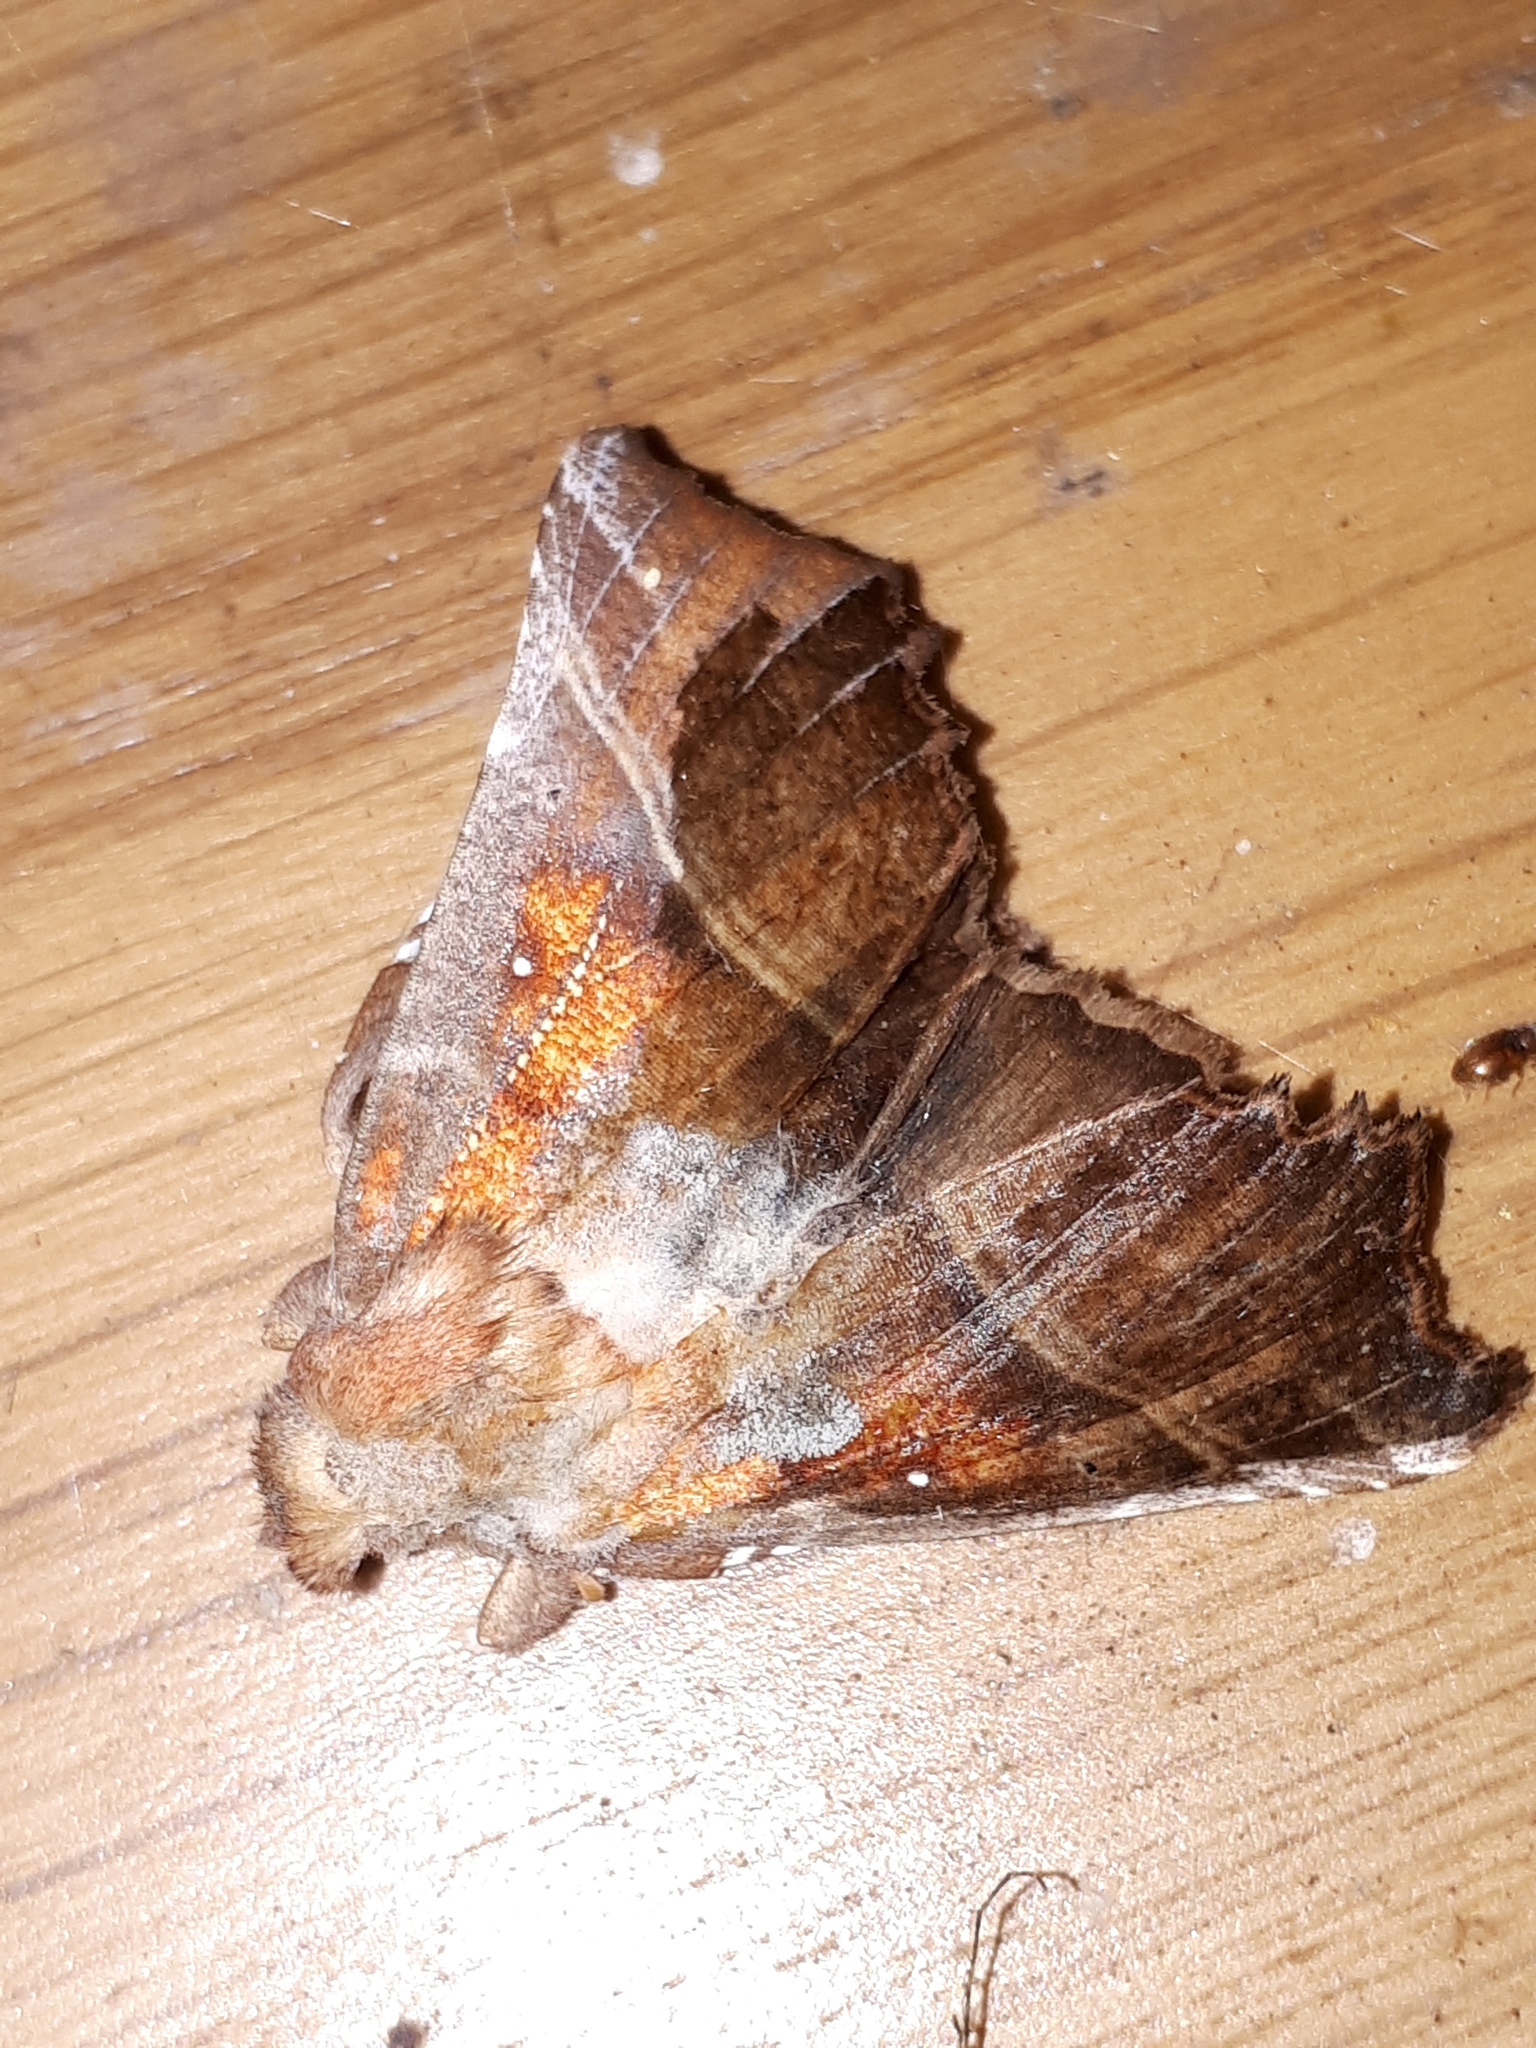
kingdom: Animalia
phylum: Arthropoda
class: Insecta
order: Lepidoptera
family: Erebidae
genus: Scoliopteryx
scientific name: Scoliopteryx libatrix
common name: Herald
